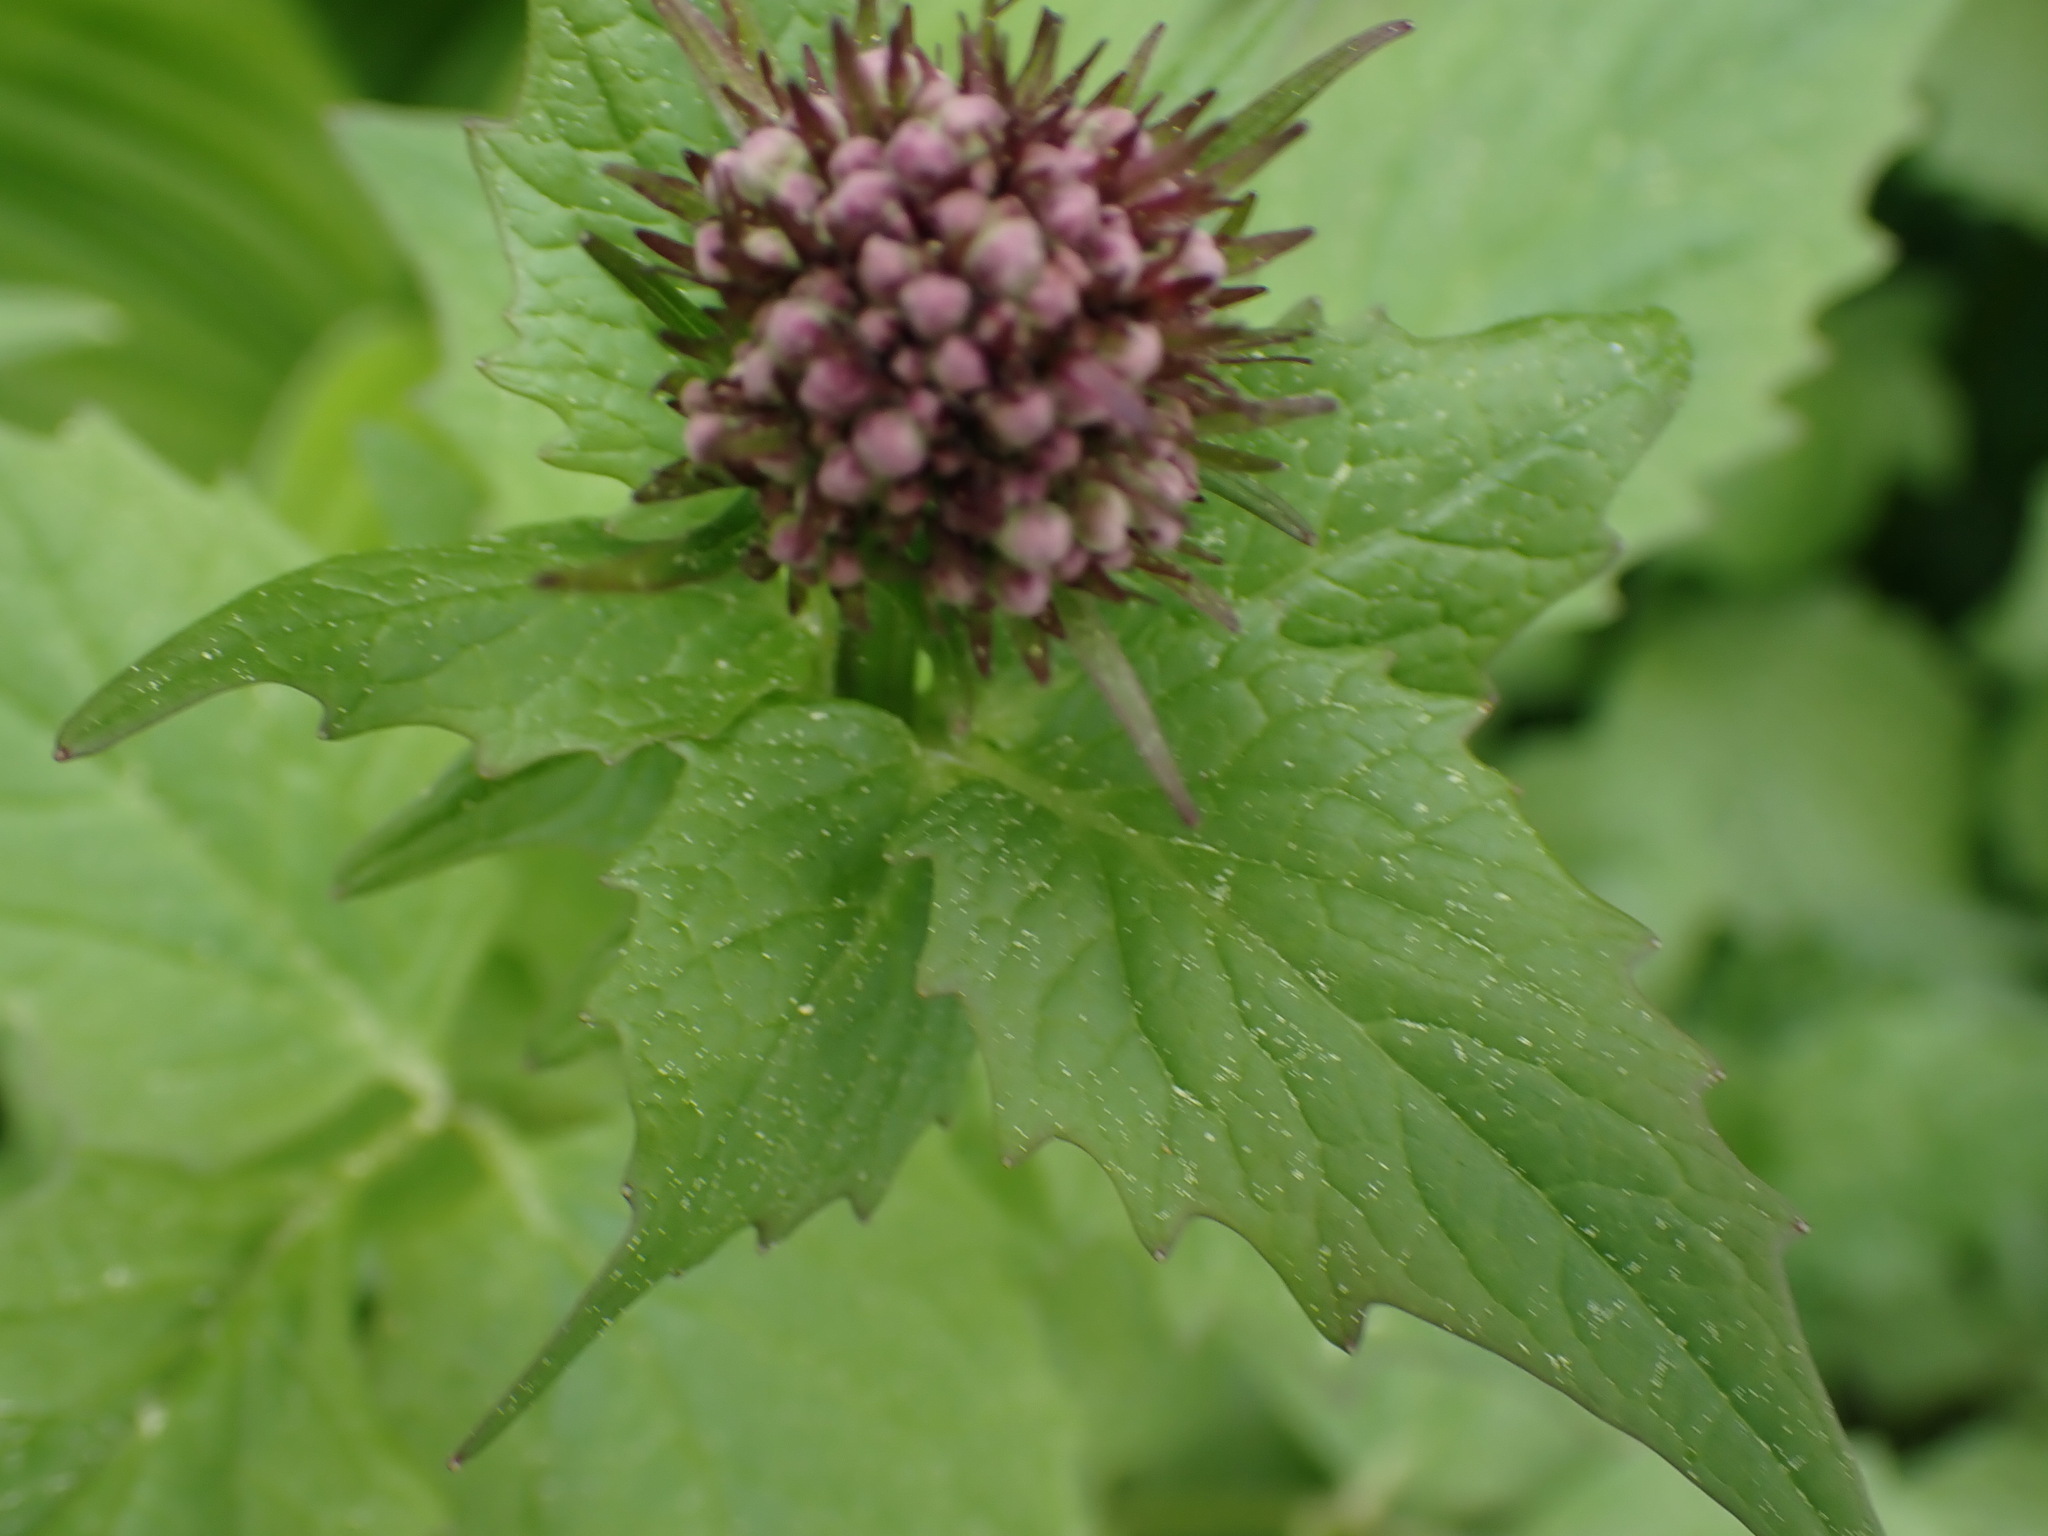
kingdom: Plantae
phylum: Tracheophyta
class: Magnoliopsida
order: Dipsacales
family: Caprifoliaceae
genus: Valeriana
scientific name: Valeriana sitchensis
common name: Pacific valerian
